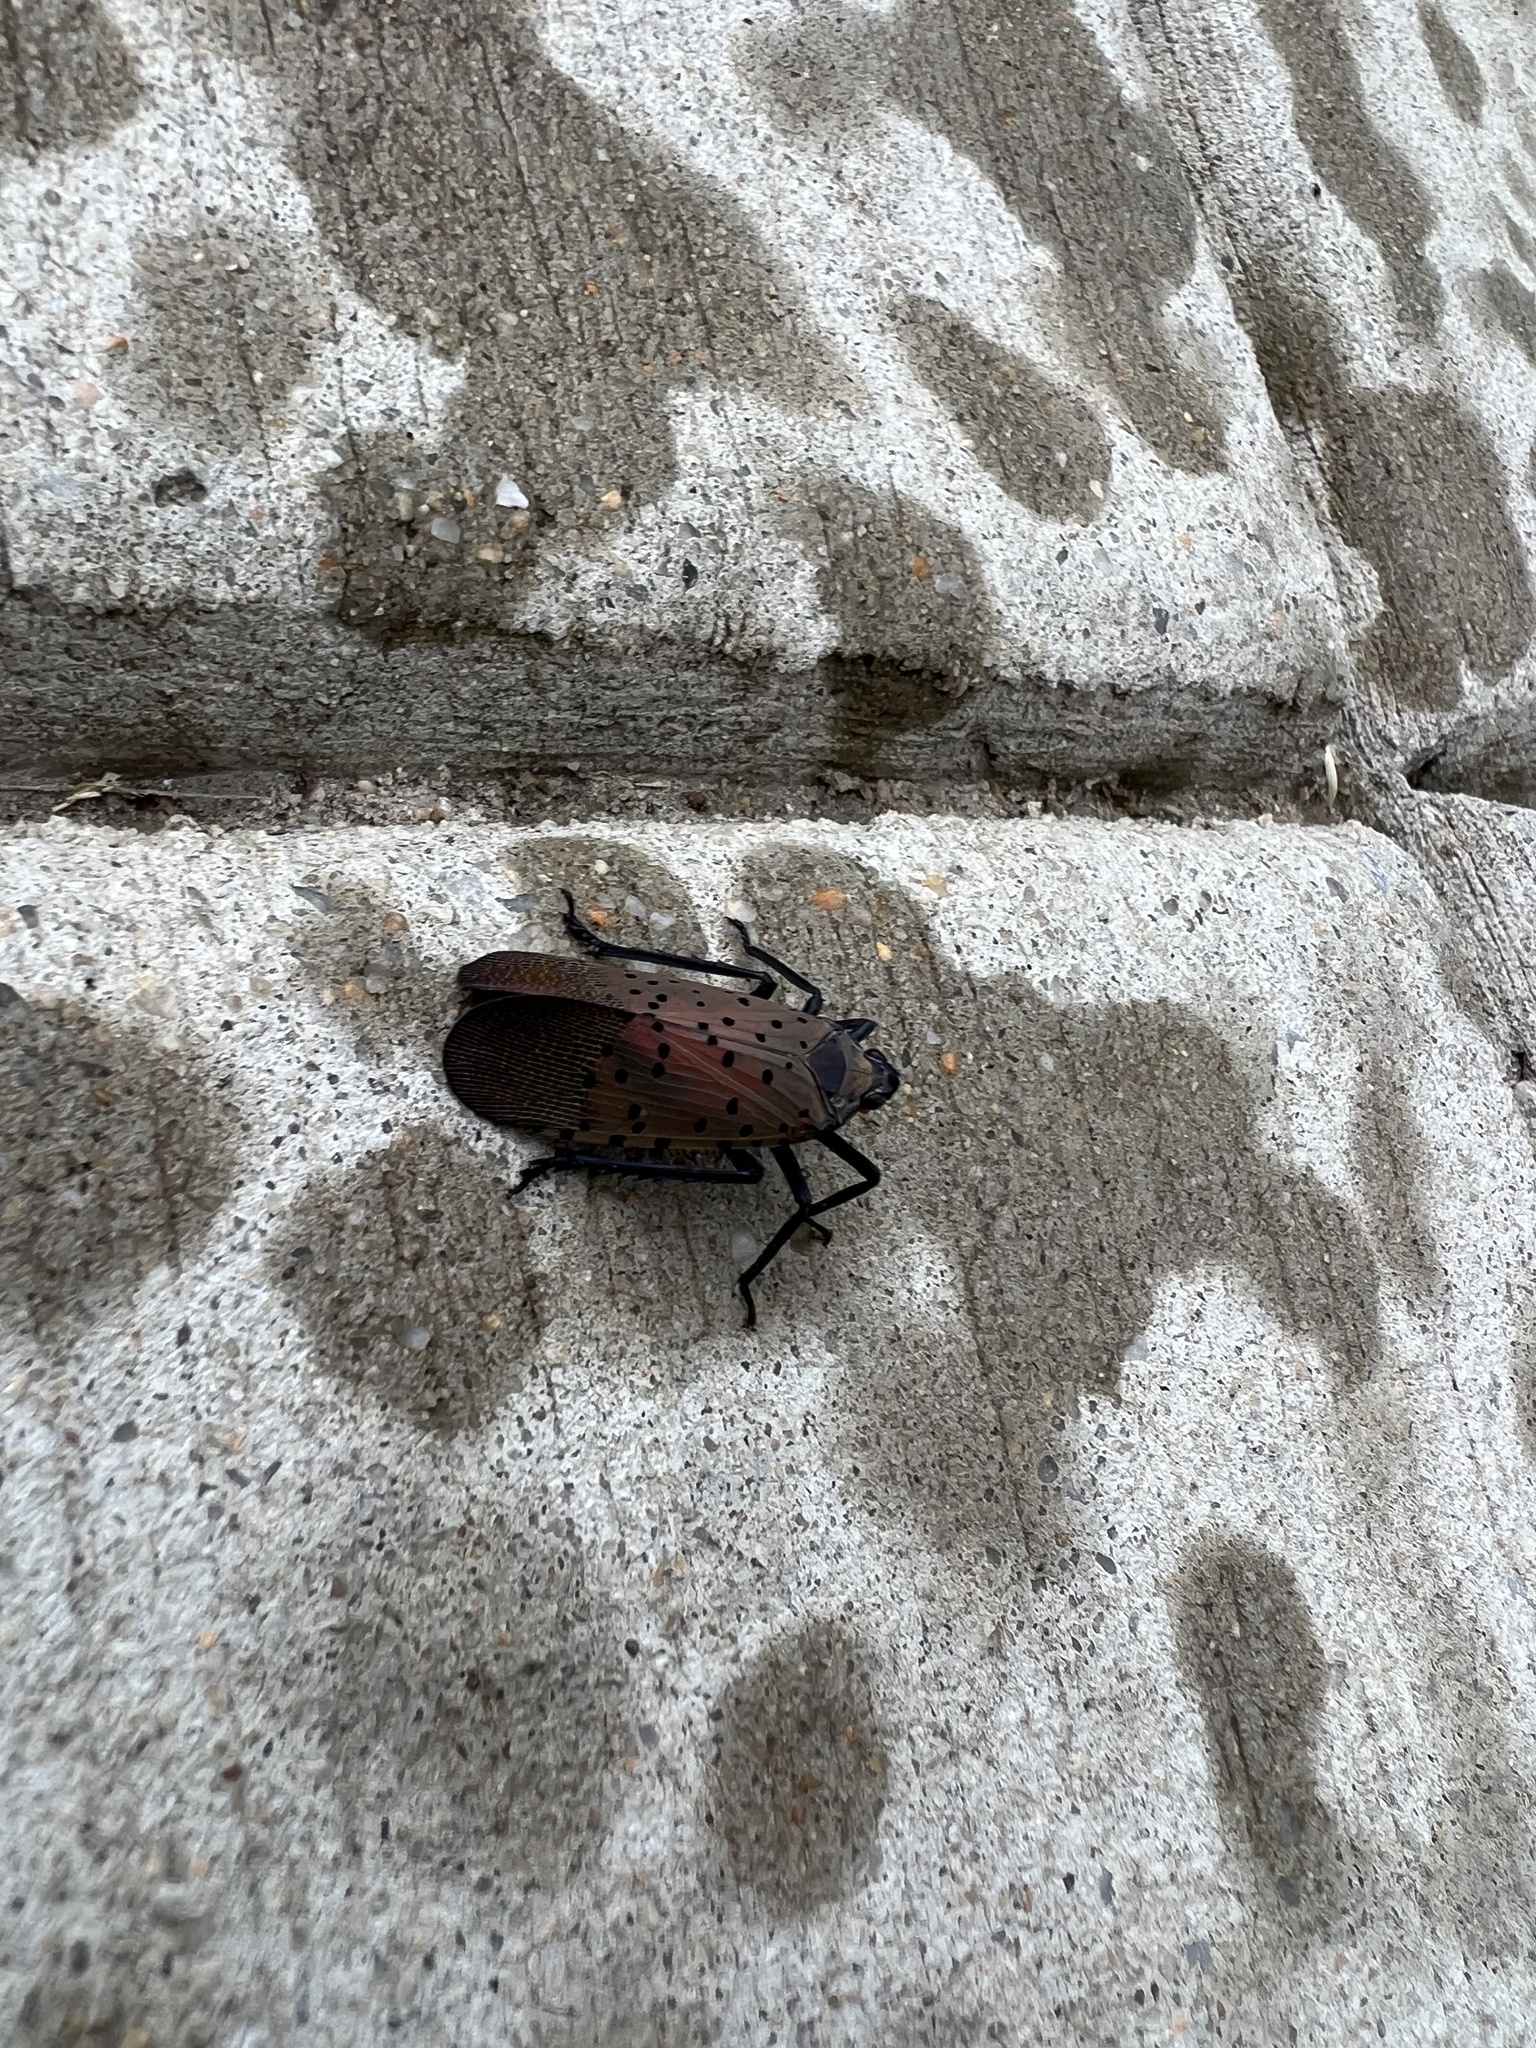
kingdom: Animalia
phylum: Arthropoda
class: Insecta
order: Hemiptera
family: Fulgoridae
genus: Lycorma
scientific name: Lycorma delicatula
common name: Spotted lanternfly
